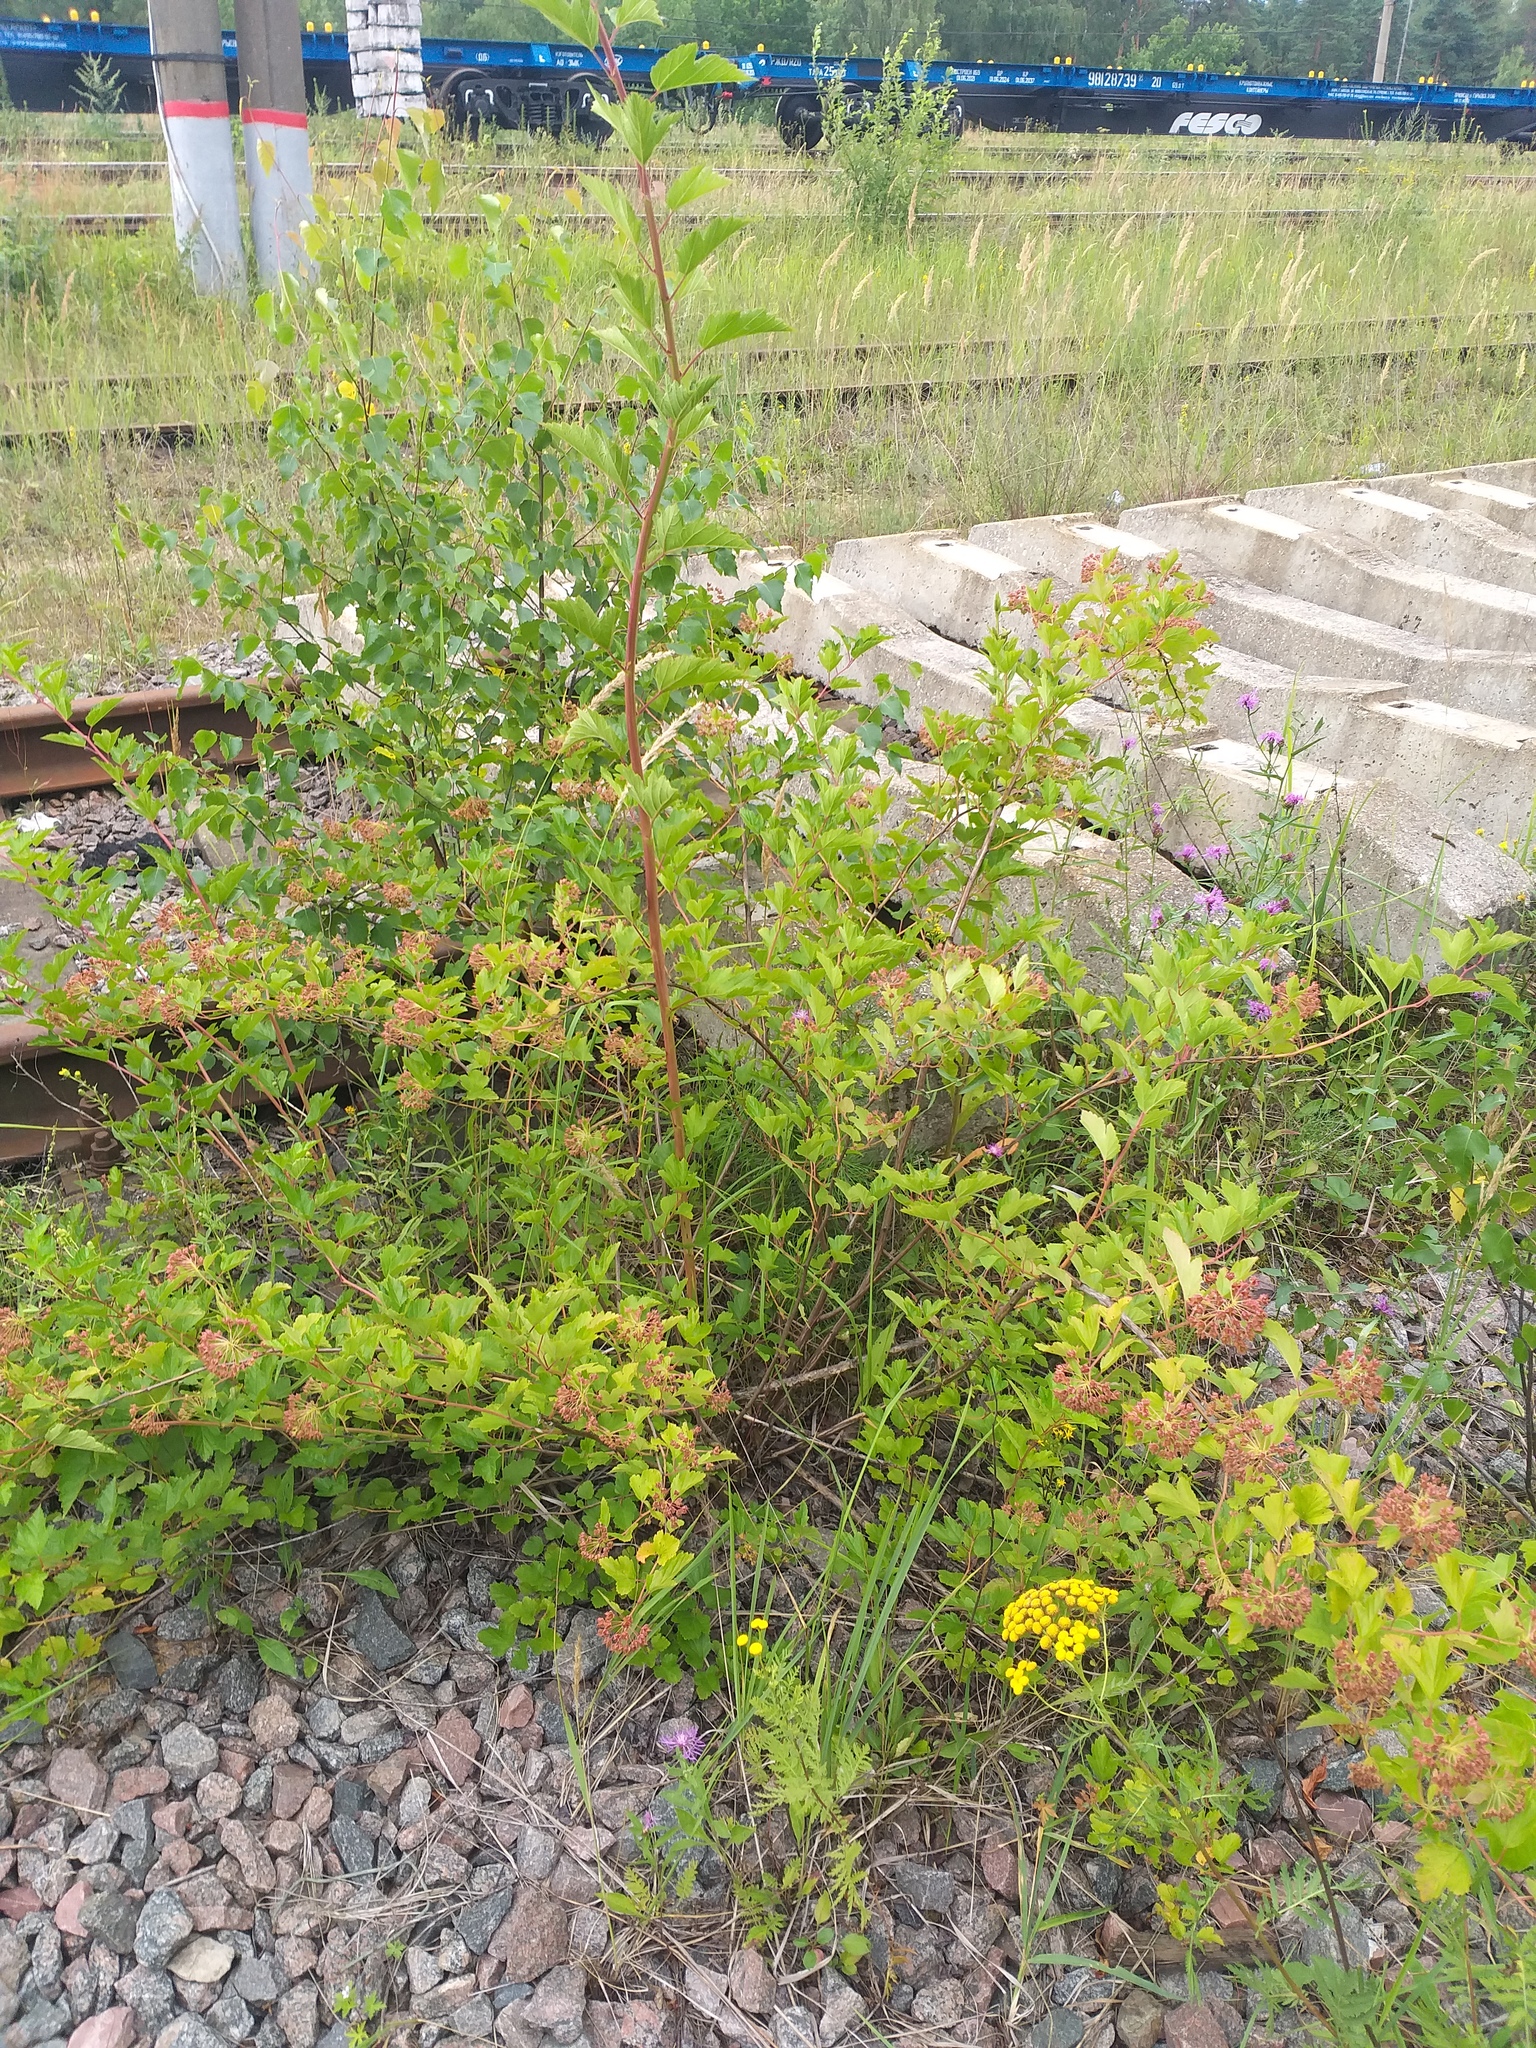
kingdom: Plantae
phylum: Tracheophyta
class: Magnoliopsida
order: Rosales
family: Rosaceae
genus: Physocarpus
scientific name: Physocarpus opulifolius
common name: Ninebark
